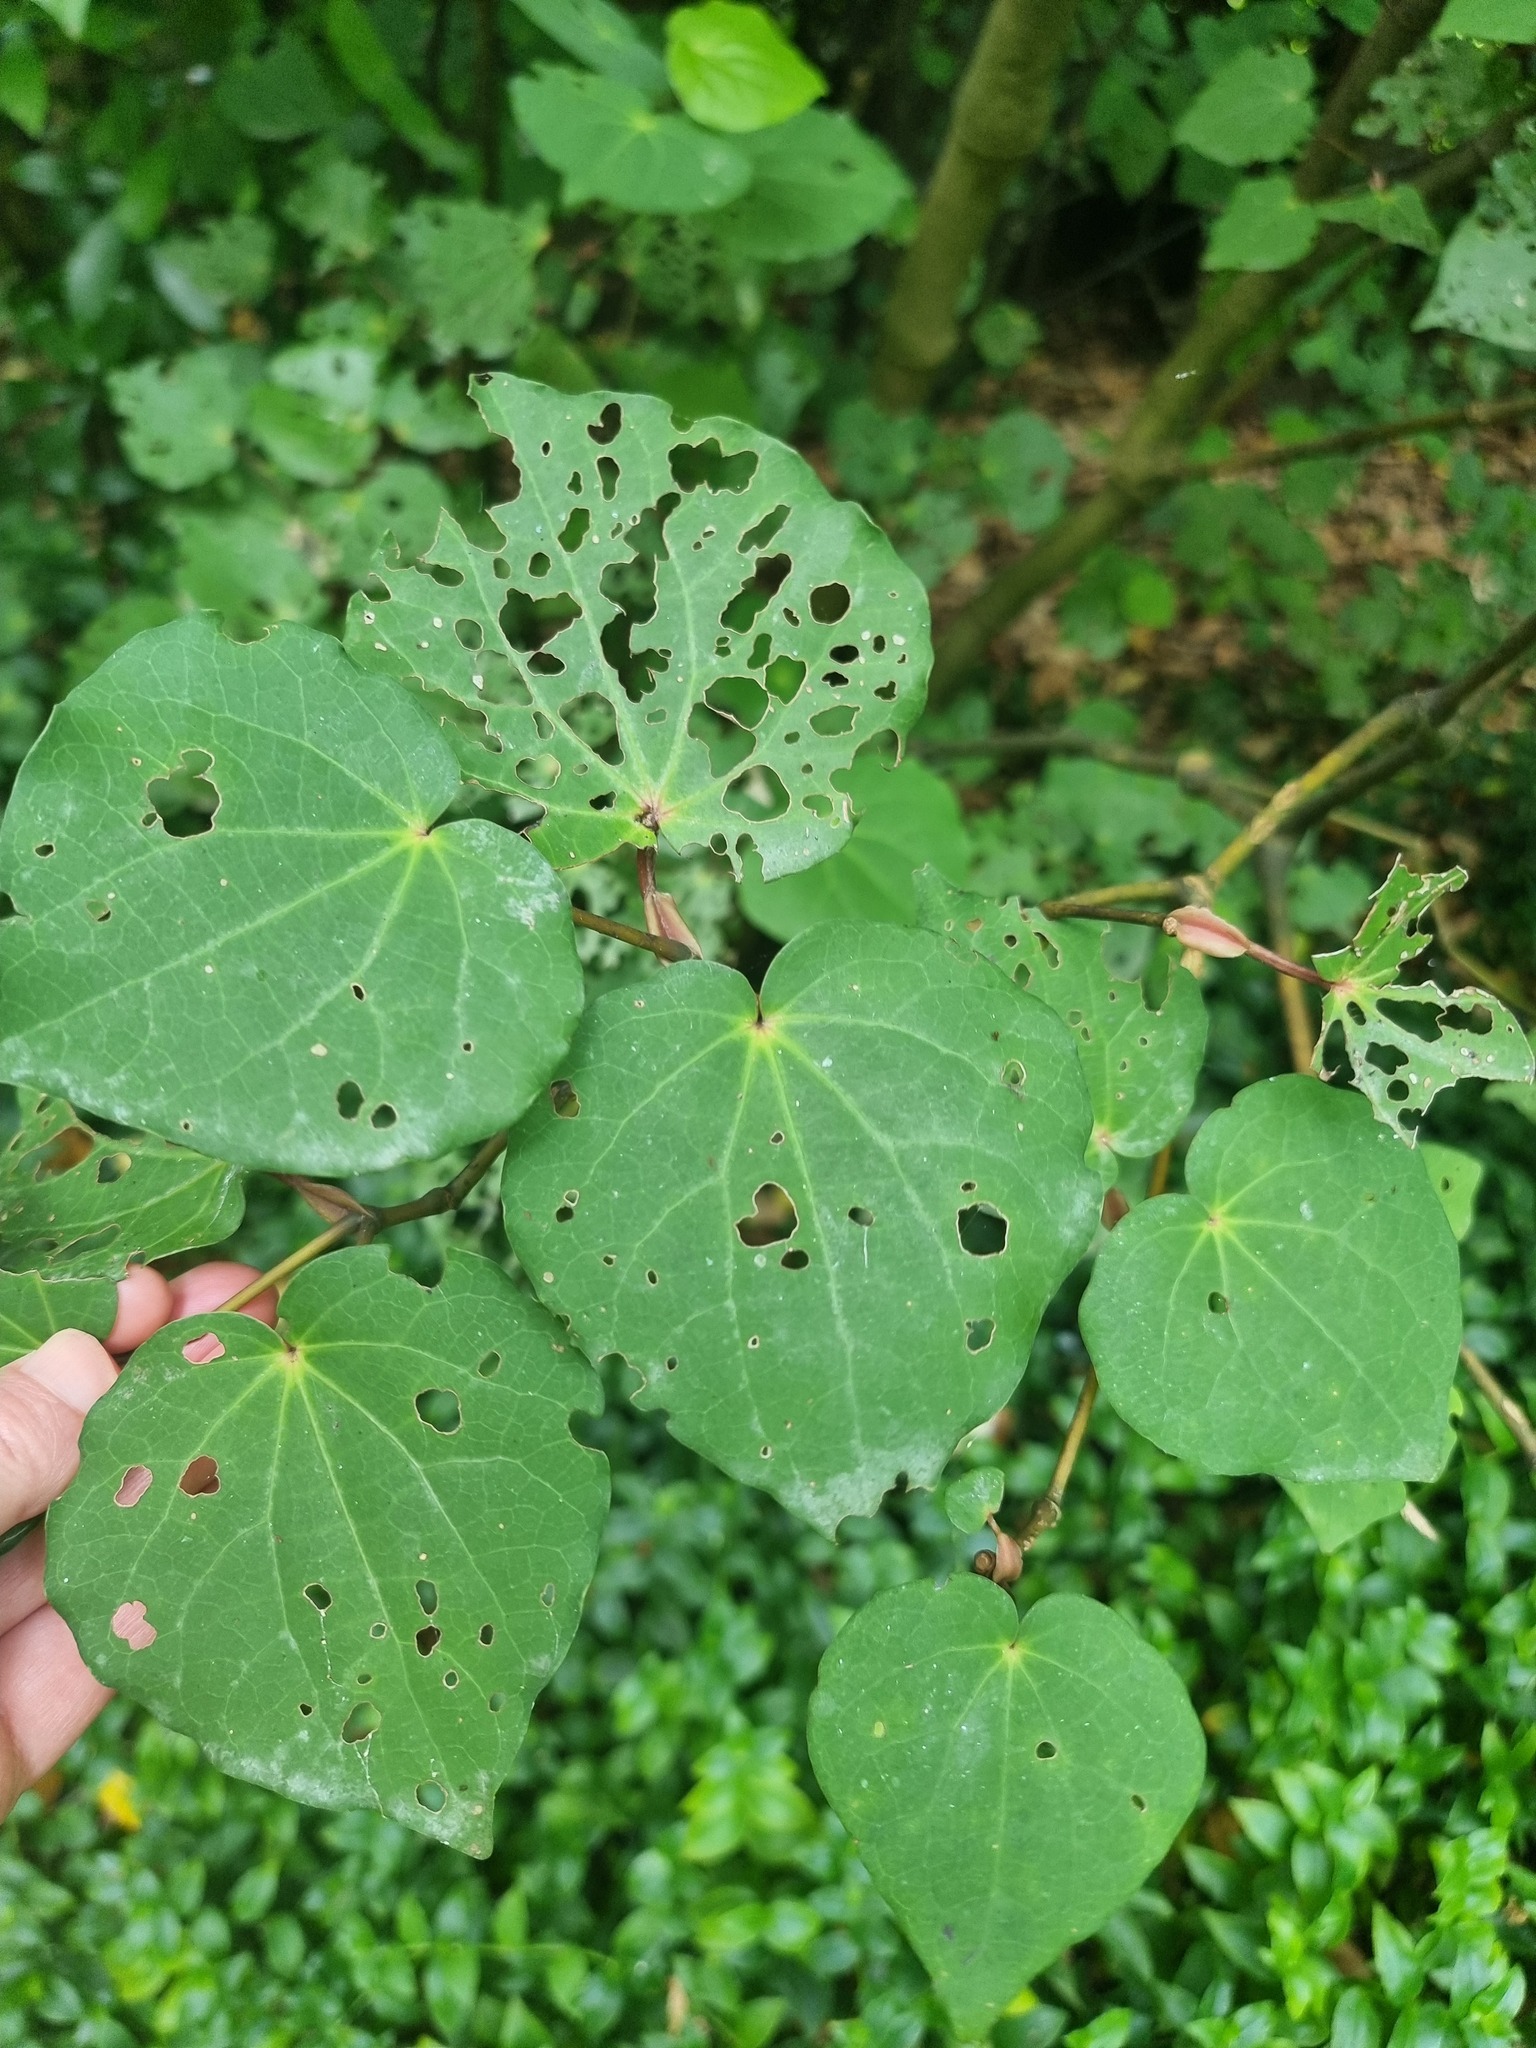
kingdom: Plantae
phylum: Tracheophyta
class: Magnoliopsida
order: Piperales
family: Piperaceae
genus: Macropiper
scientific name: Macropiper excelsum
